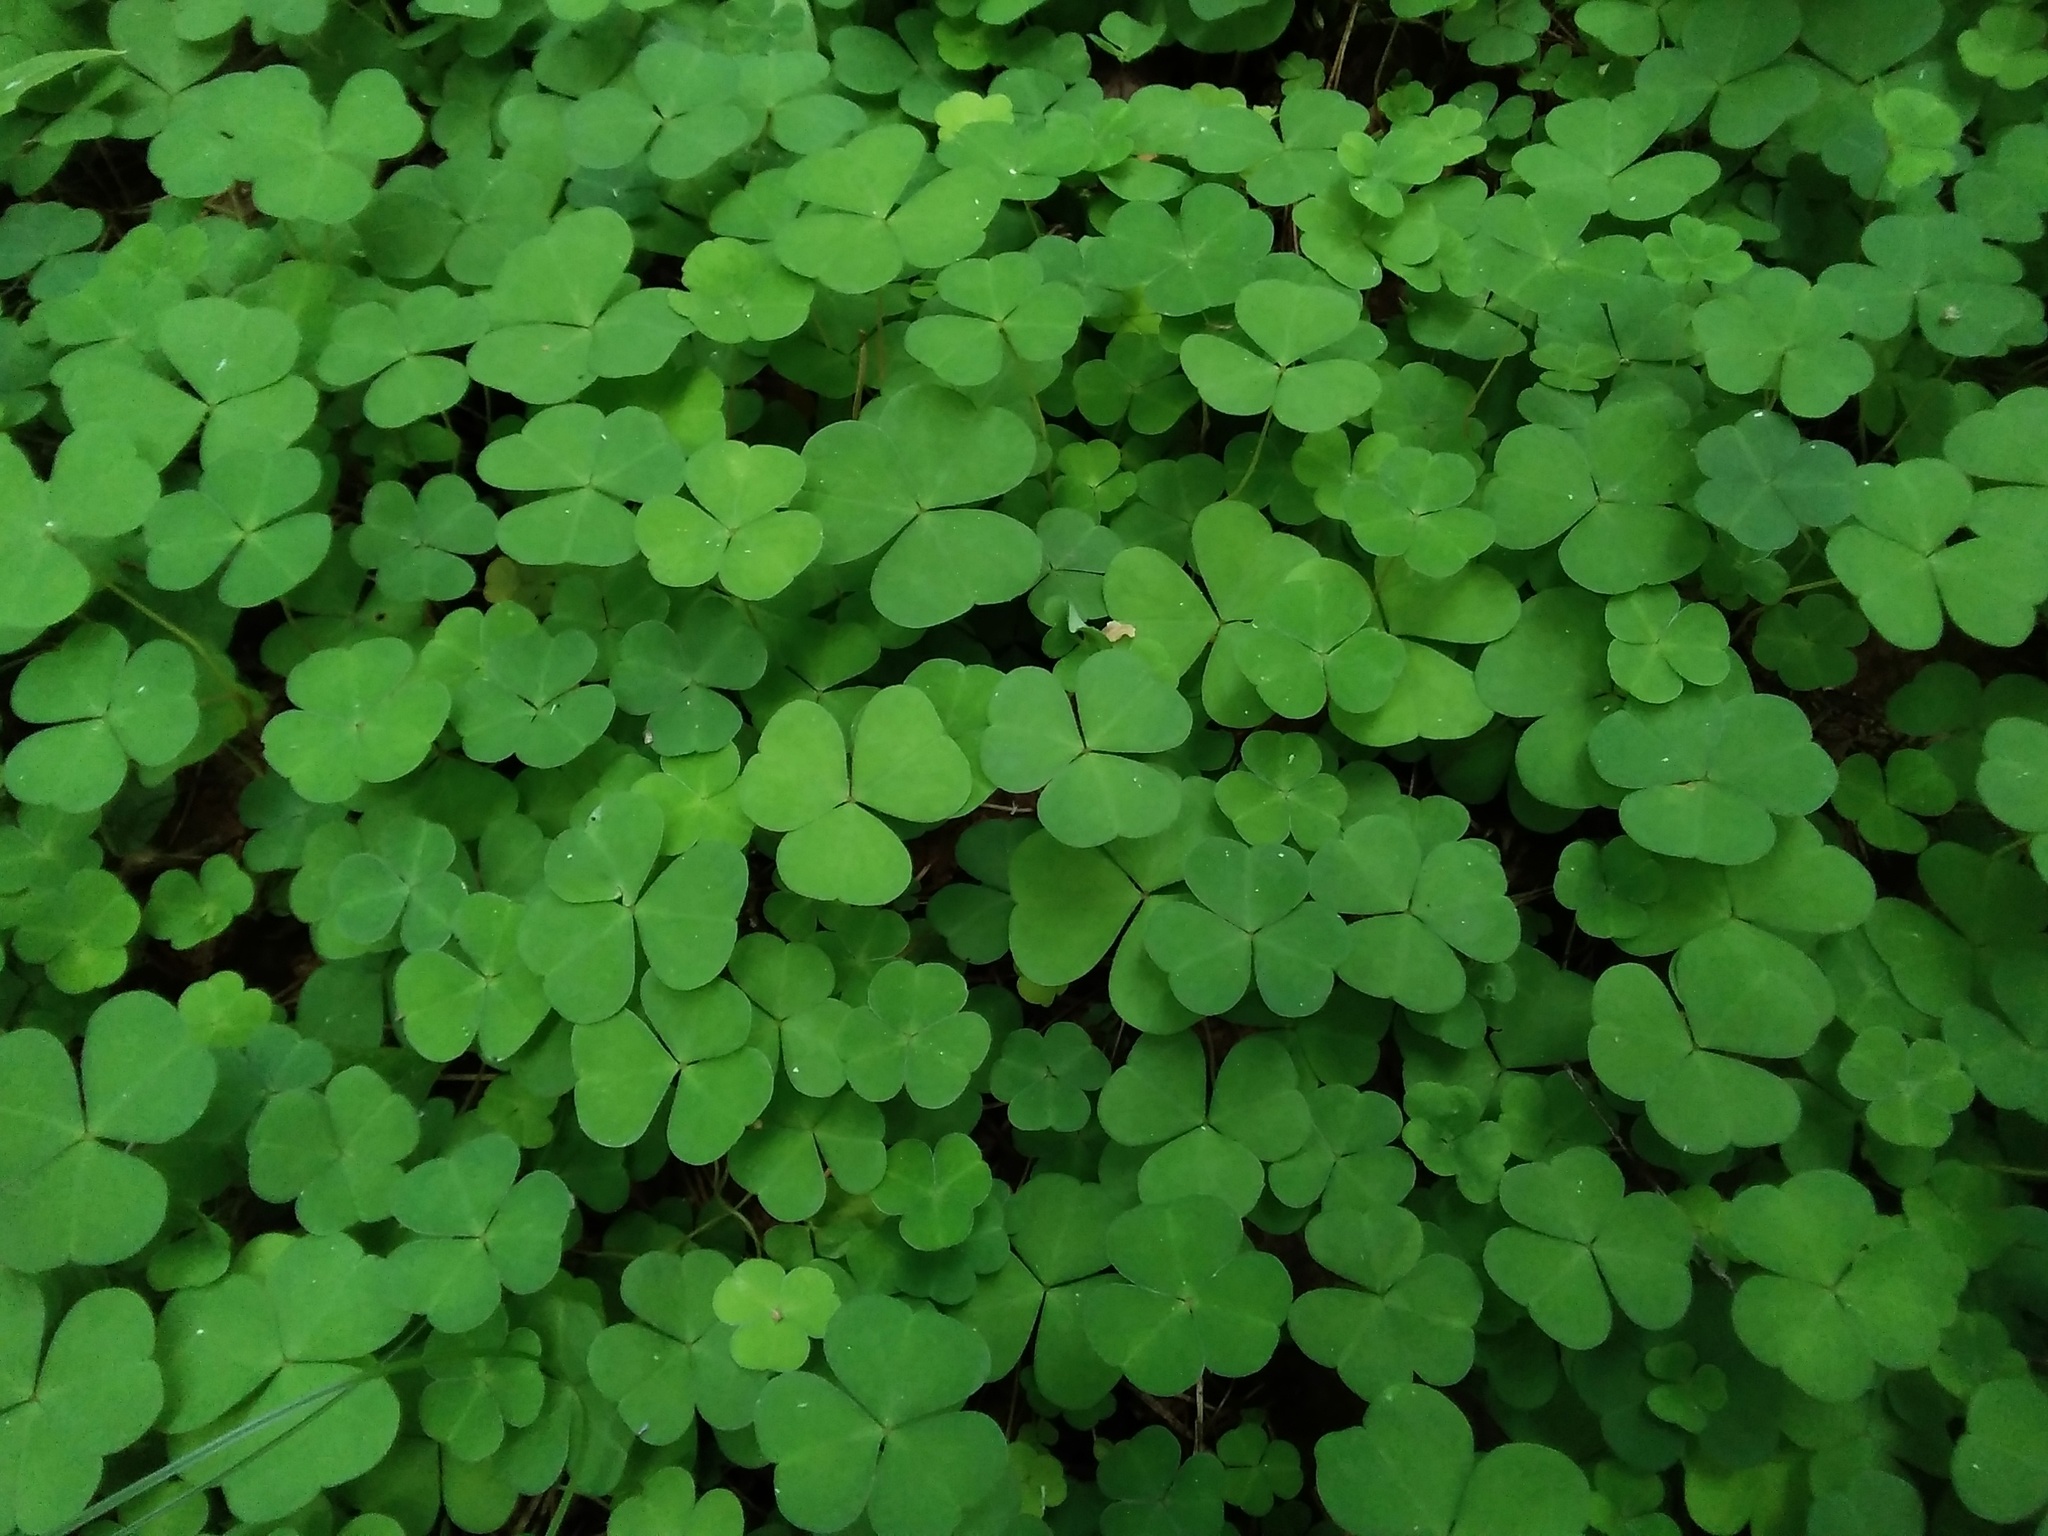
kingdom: Plantae
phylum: Tracheophyta
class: Magnoliopsida
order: Oxalidales
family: Oxalidaceae
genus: Oxalis
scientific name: Oxalis acetosella
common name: Wood-sorrel
